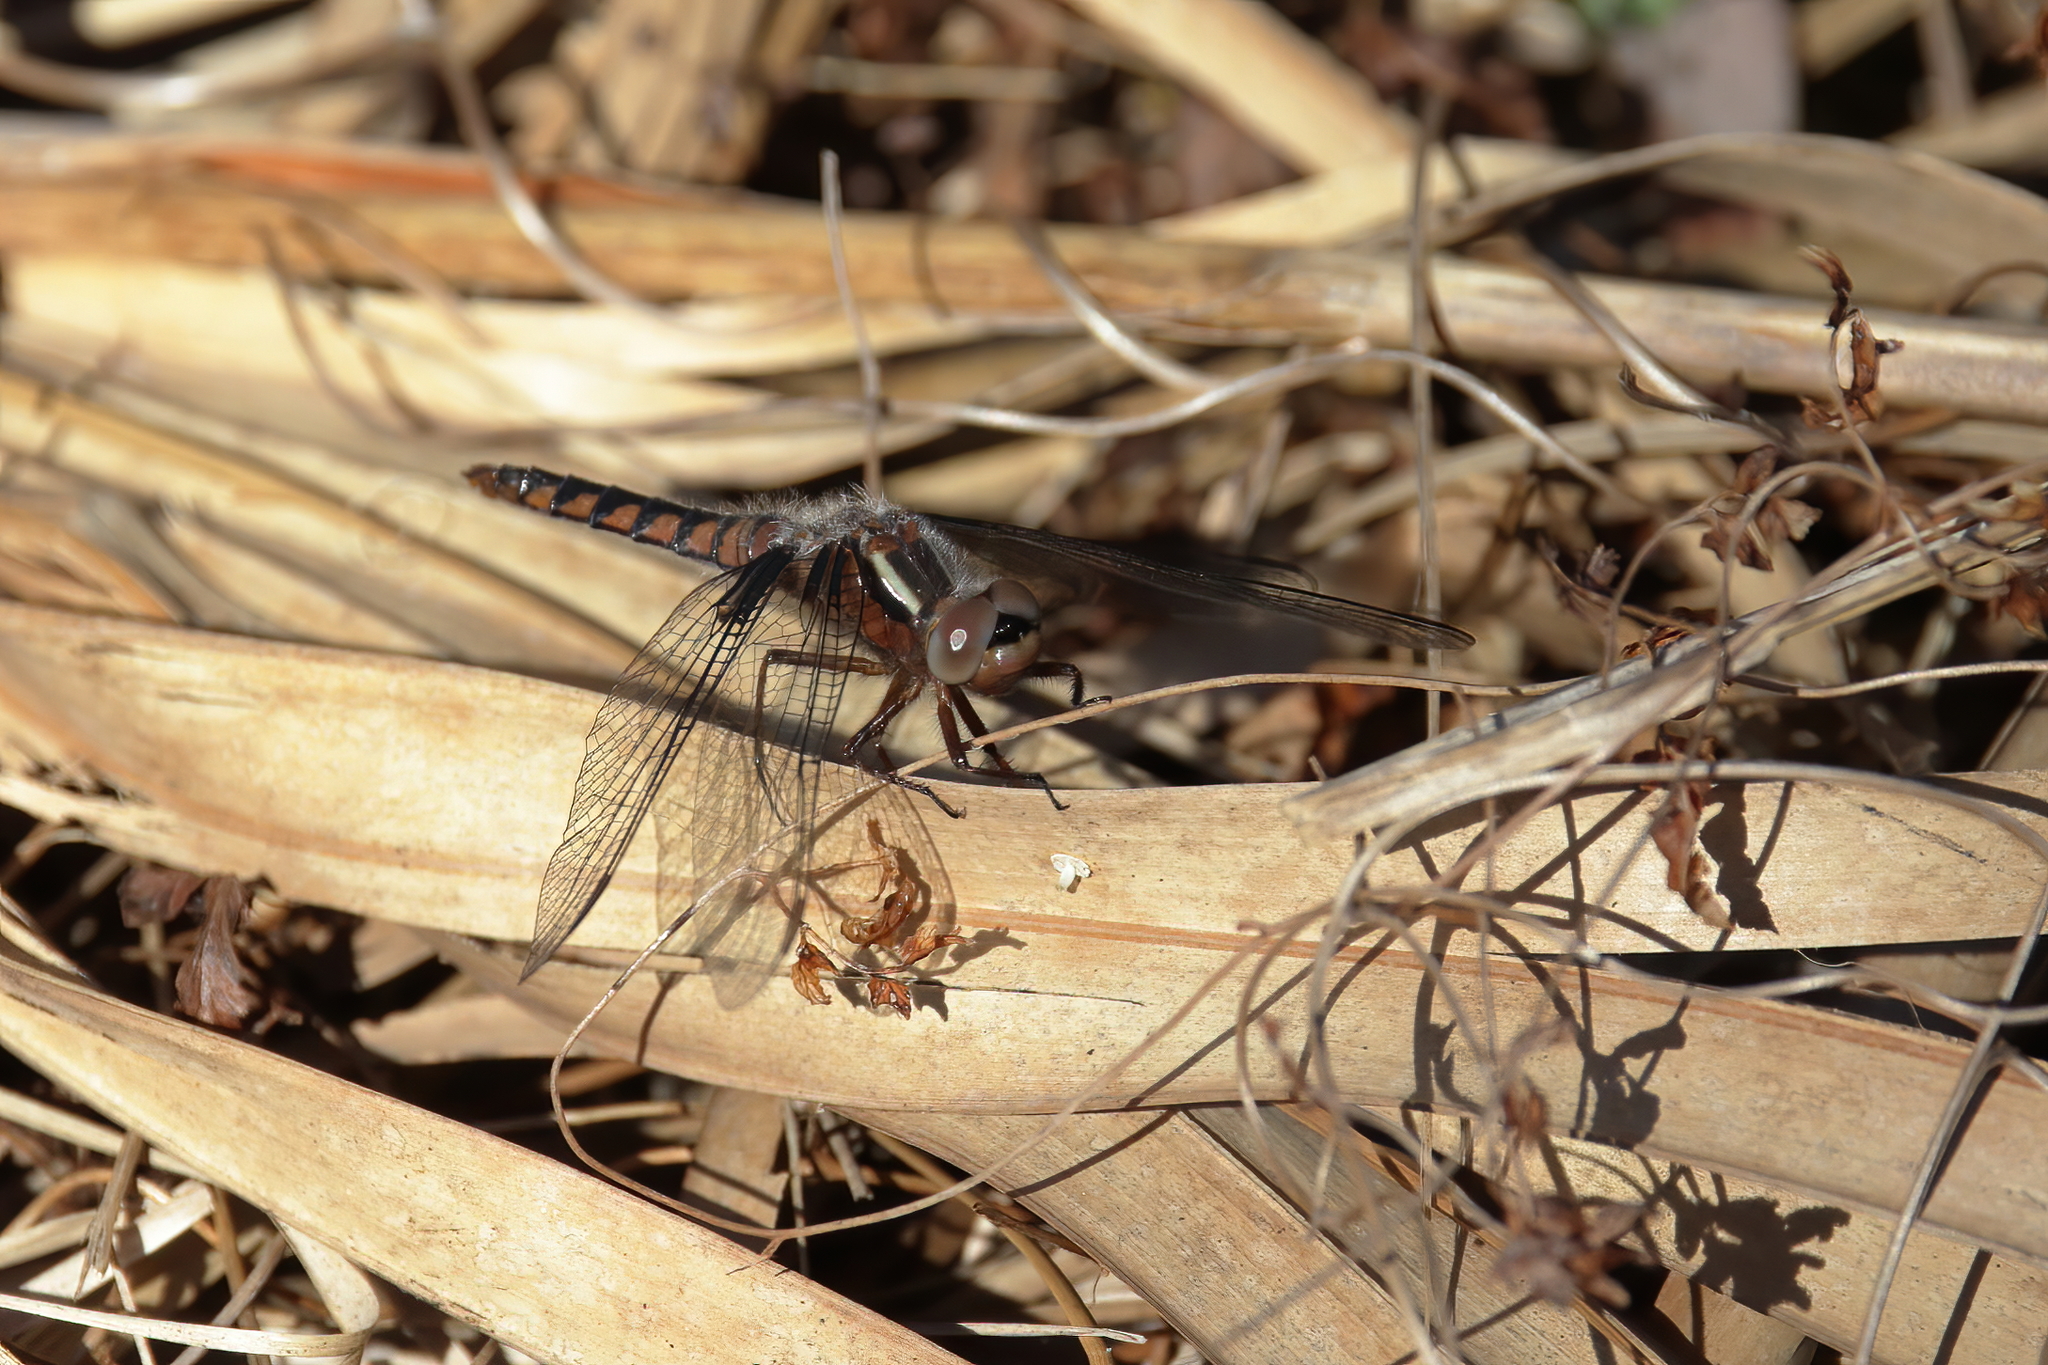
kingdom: Animalia
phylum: Arthropoda
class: Insecta
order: Odonata
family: Libellulidae
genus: Ladona
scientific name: Ladona deplanata
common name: Blue corporal
